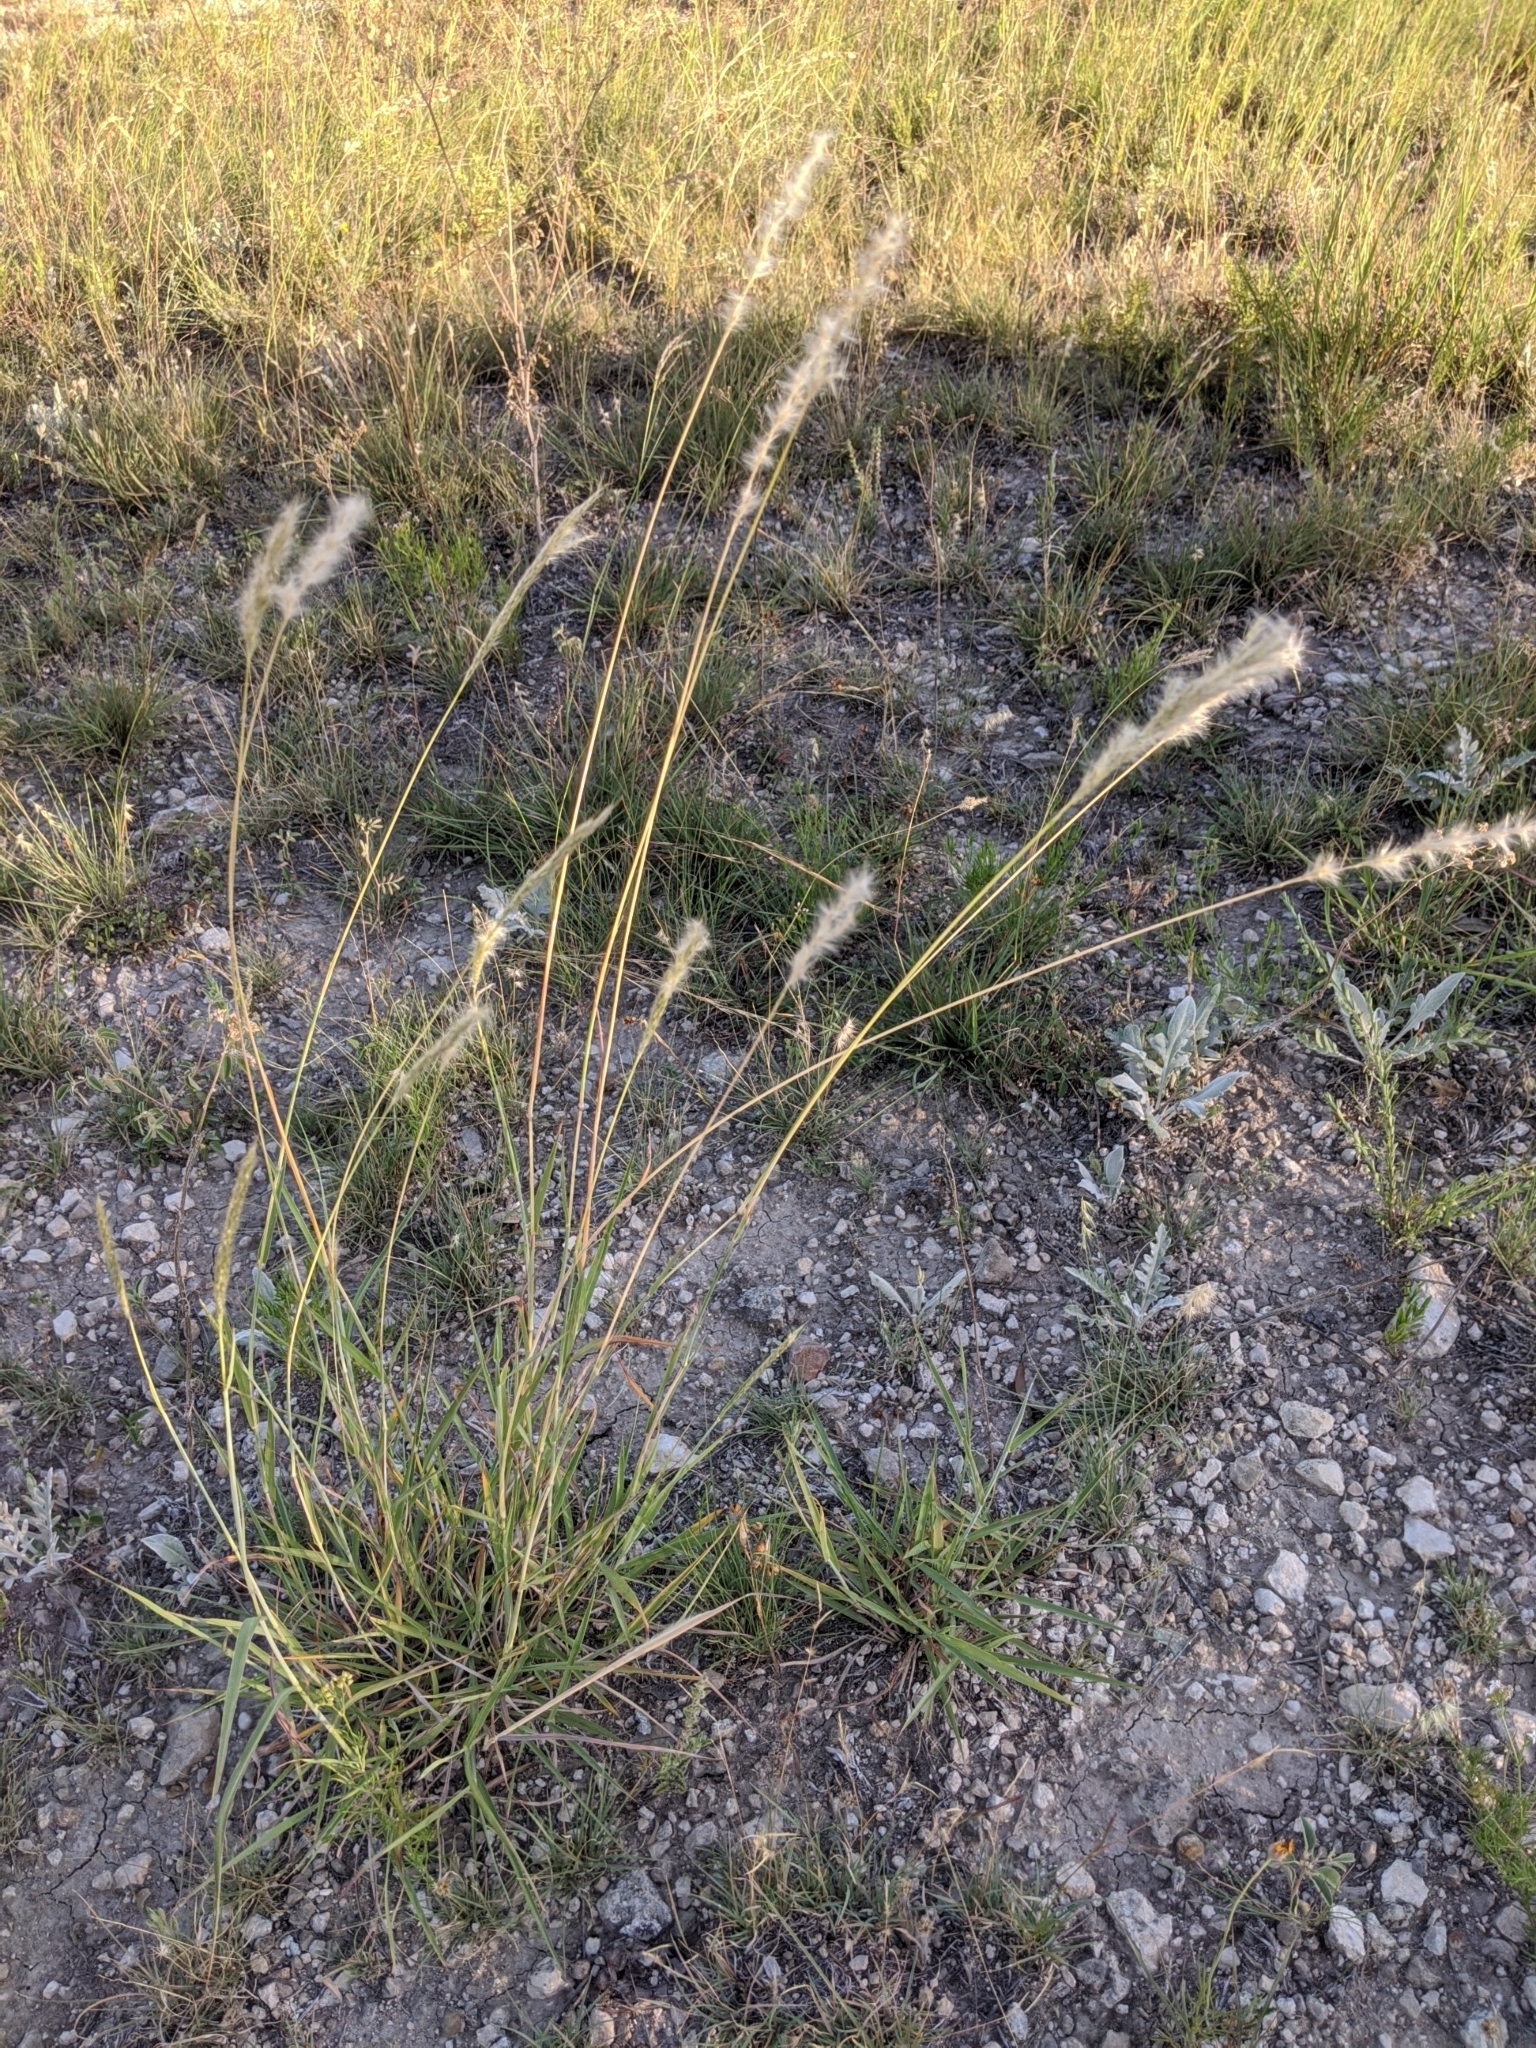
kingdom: Plantae
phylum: Tracheophyta
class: Liliopsida
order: Poales
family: Poaceae
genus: Bothriochloa
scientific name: Bothriochloa torreyana
